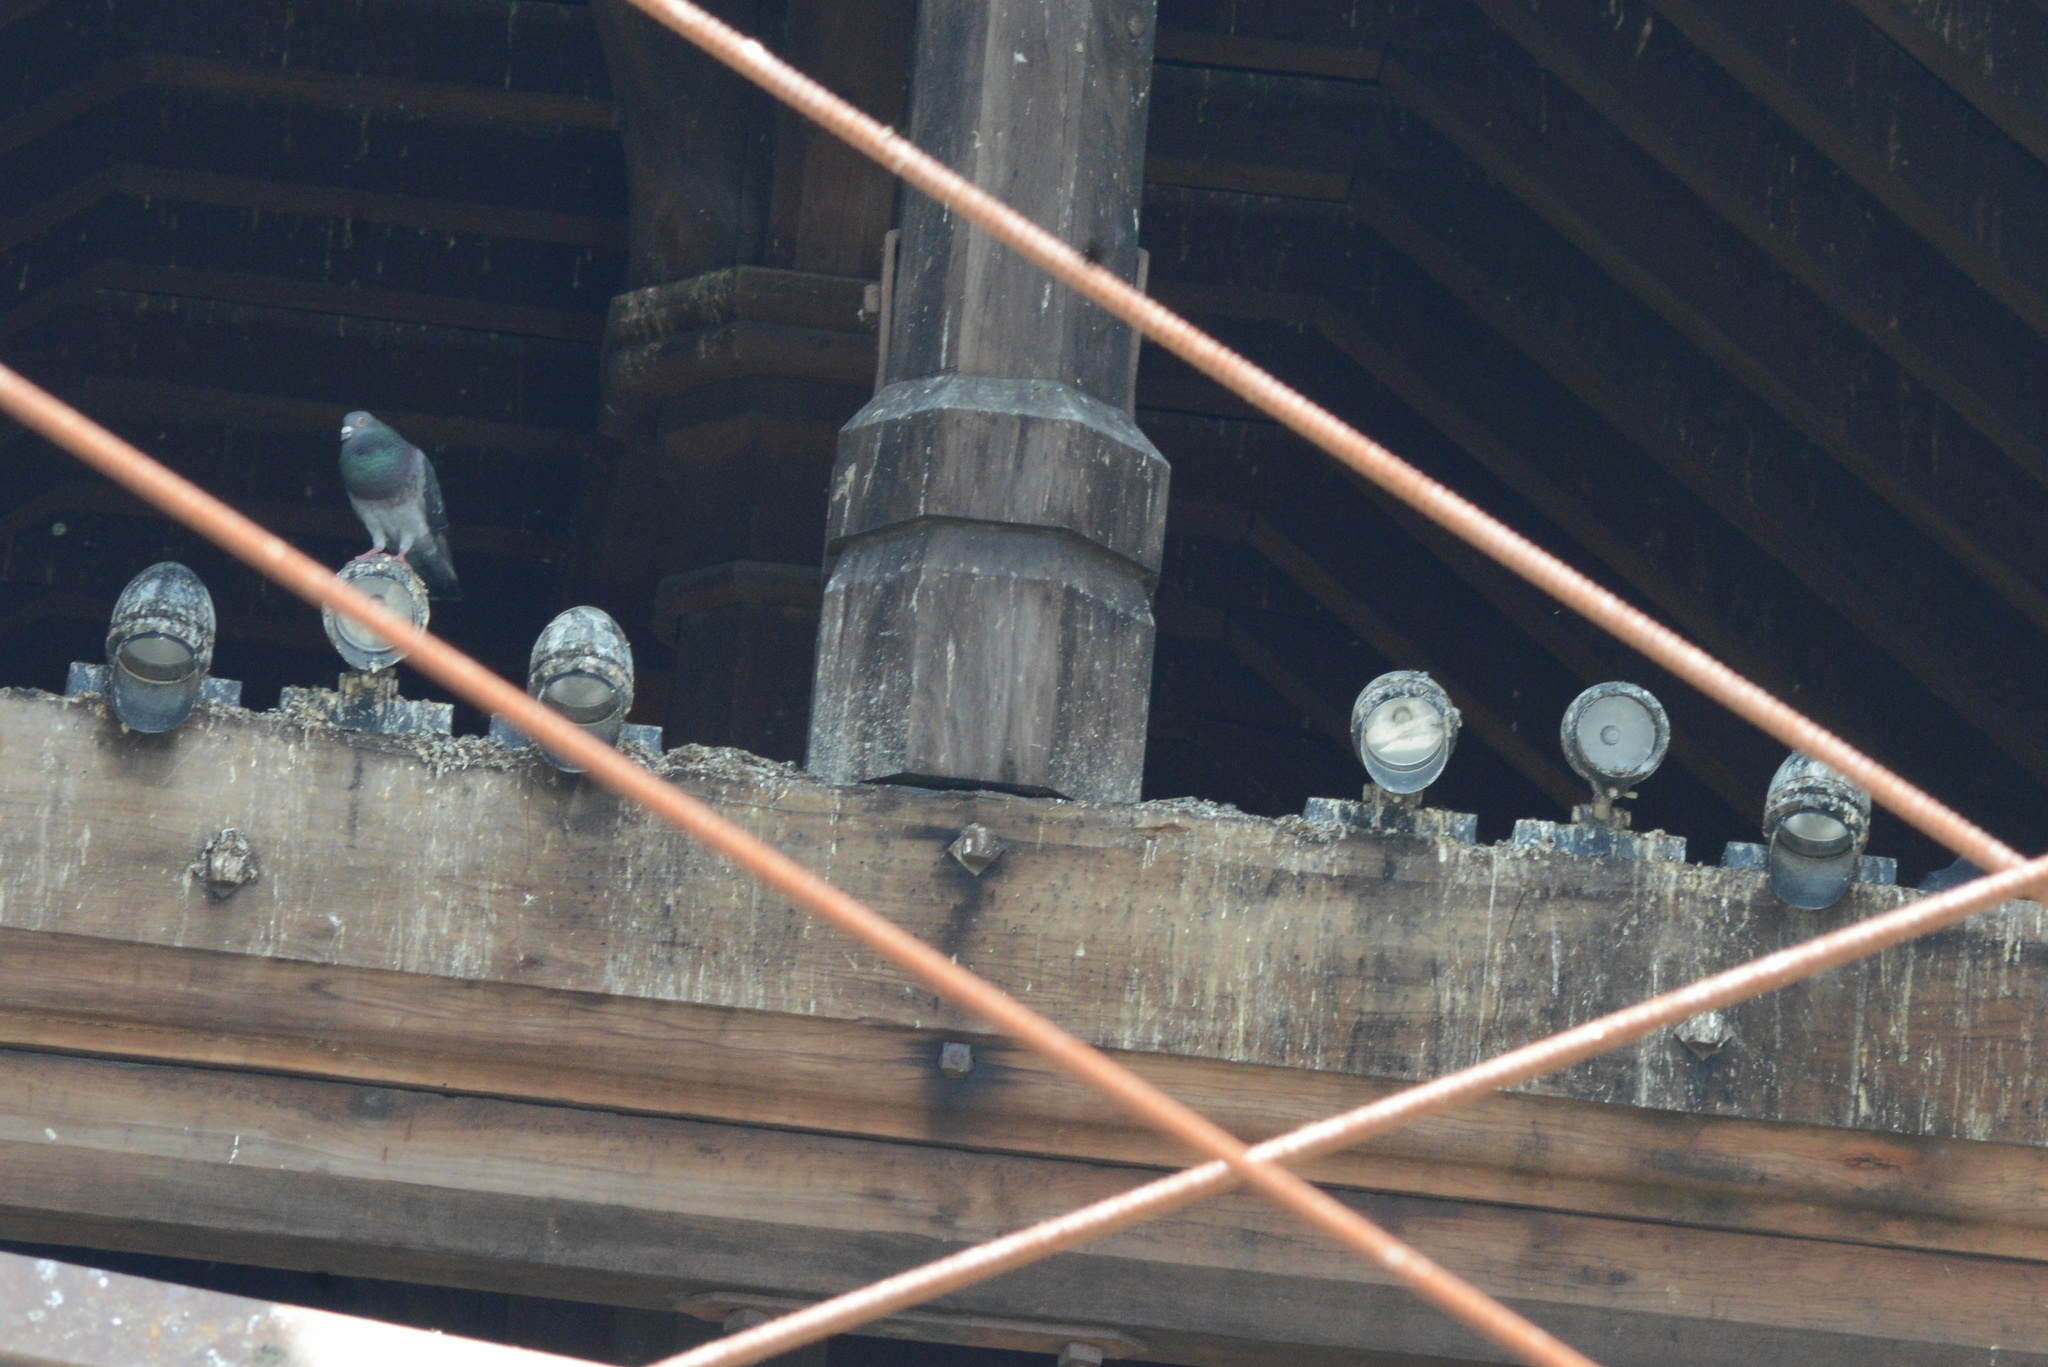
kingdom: Animalia
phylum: Chordata
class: Aves
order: Columbiformes
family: Columbidae
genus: Columba
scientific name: Columba livia
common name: Rock pigeon
